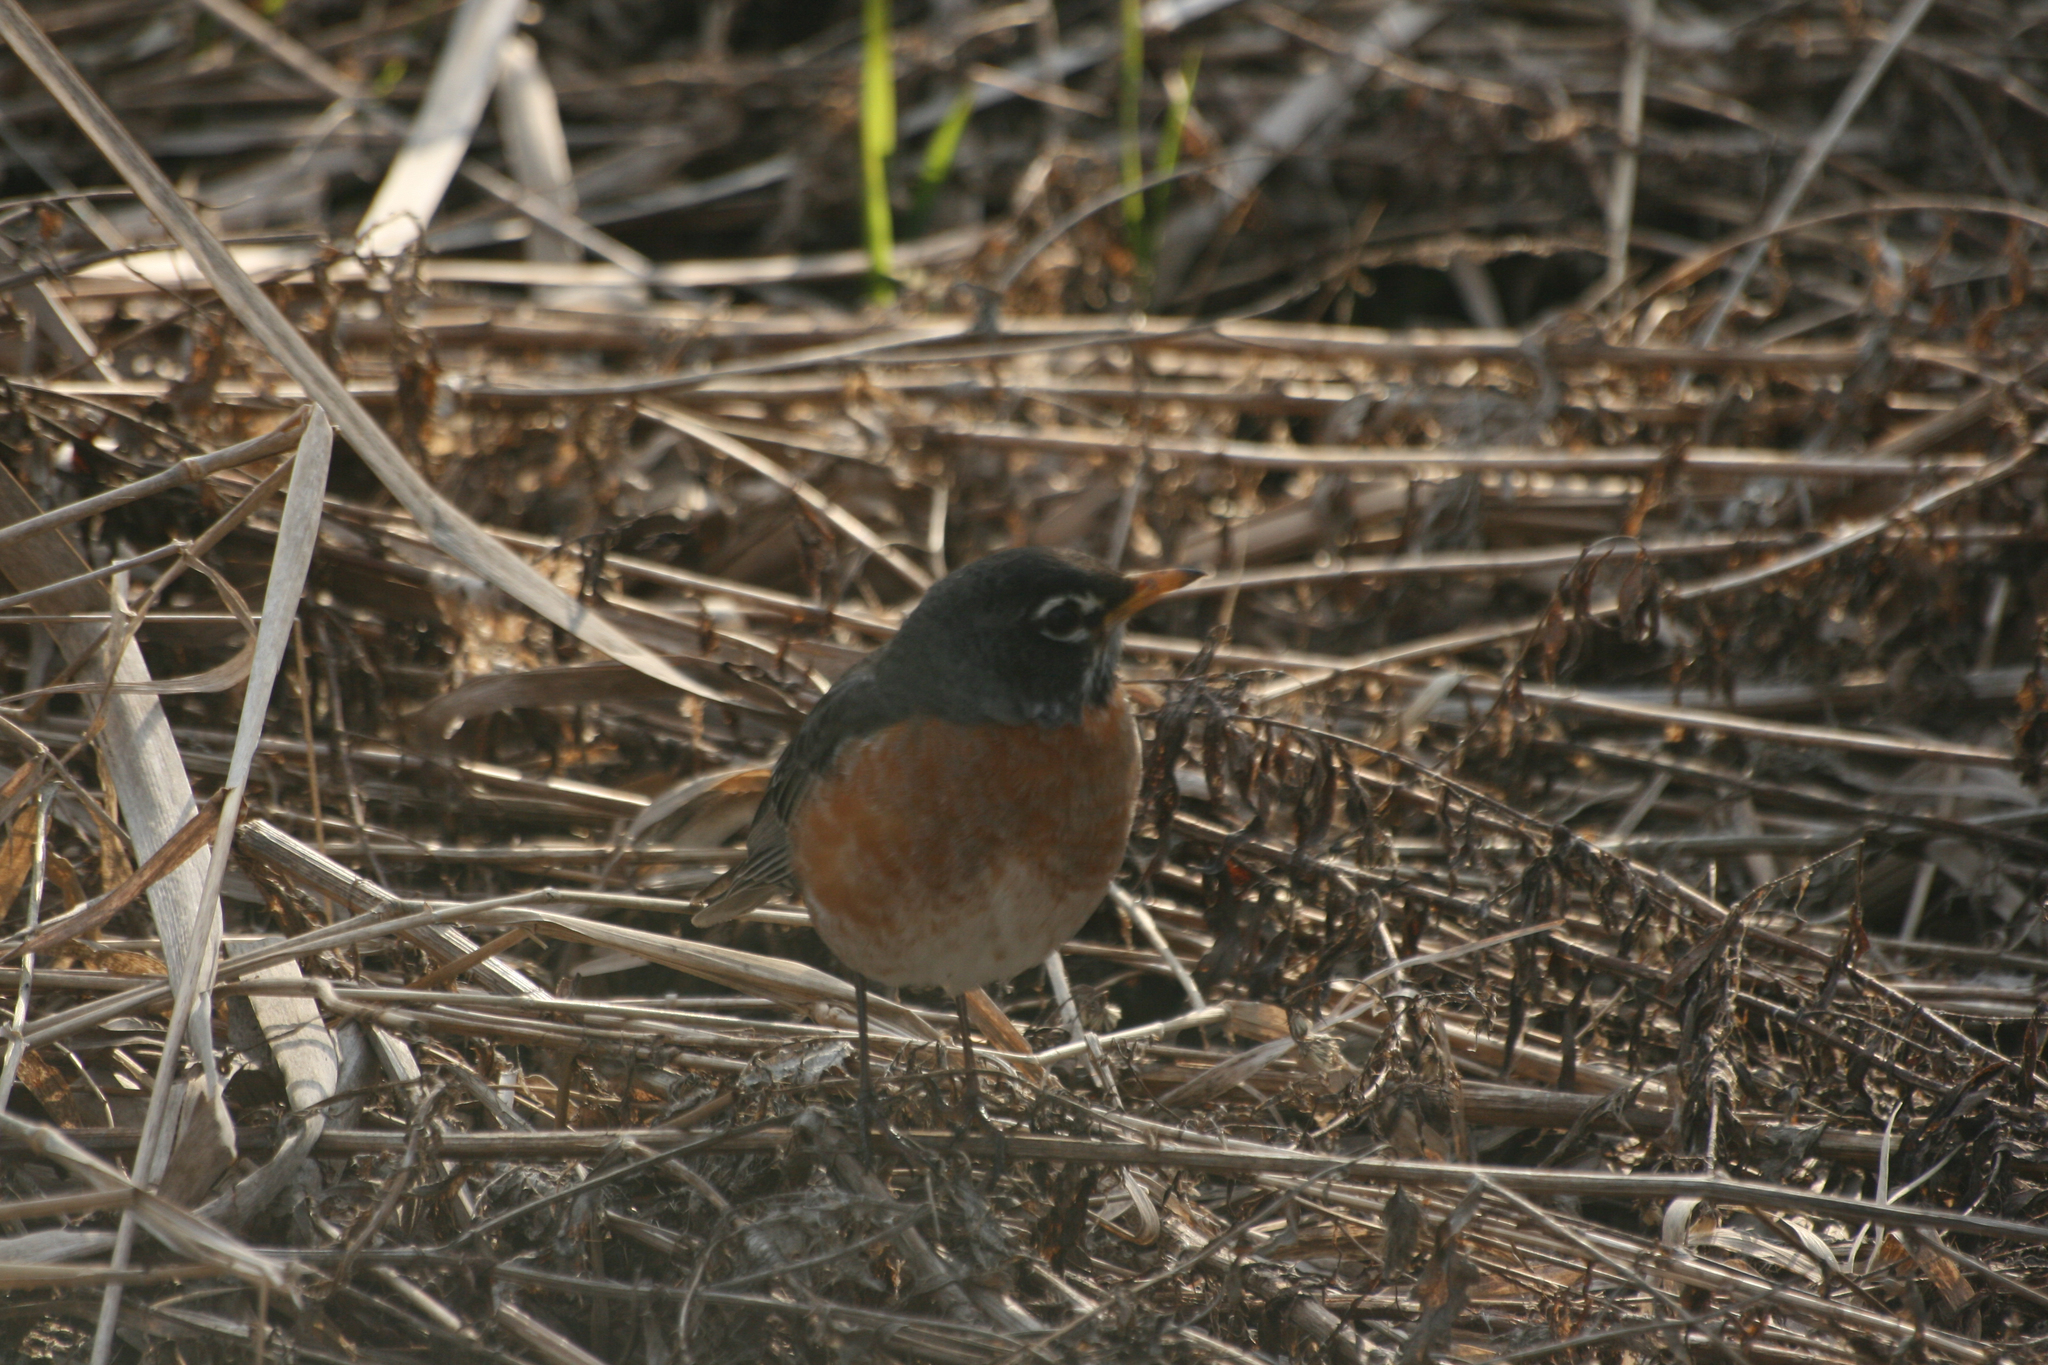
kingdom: Animalia
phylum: Chordata
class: Aves
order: Passeriformes
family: Turdidae
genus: Turdus
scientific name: Turdus migratorius
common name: American robin
